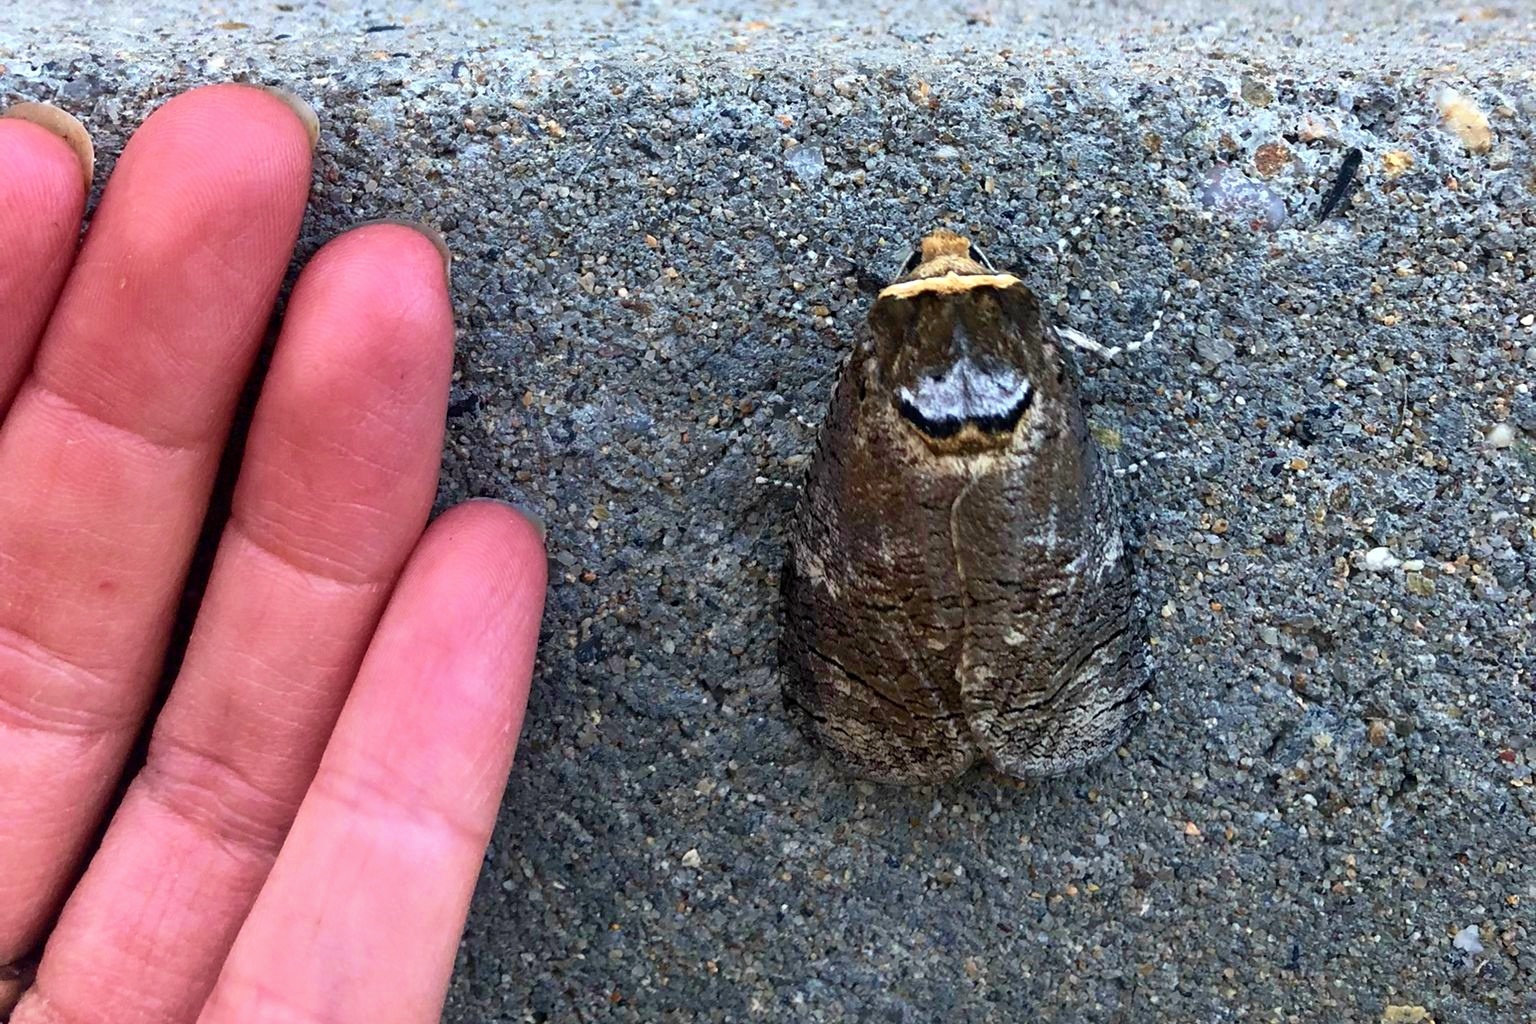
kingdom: Animalia
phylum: Arthropoda
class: Insecta
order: Lepidoptera
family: Cossidae
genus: Cossus
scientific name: Cossus cossus
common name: Goat moth
